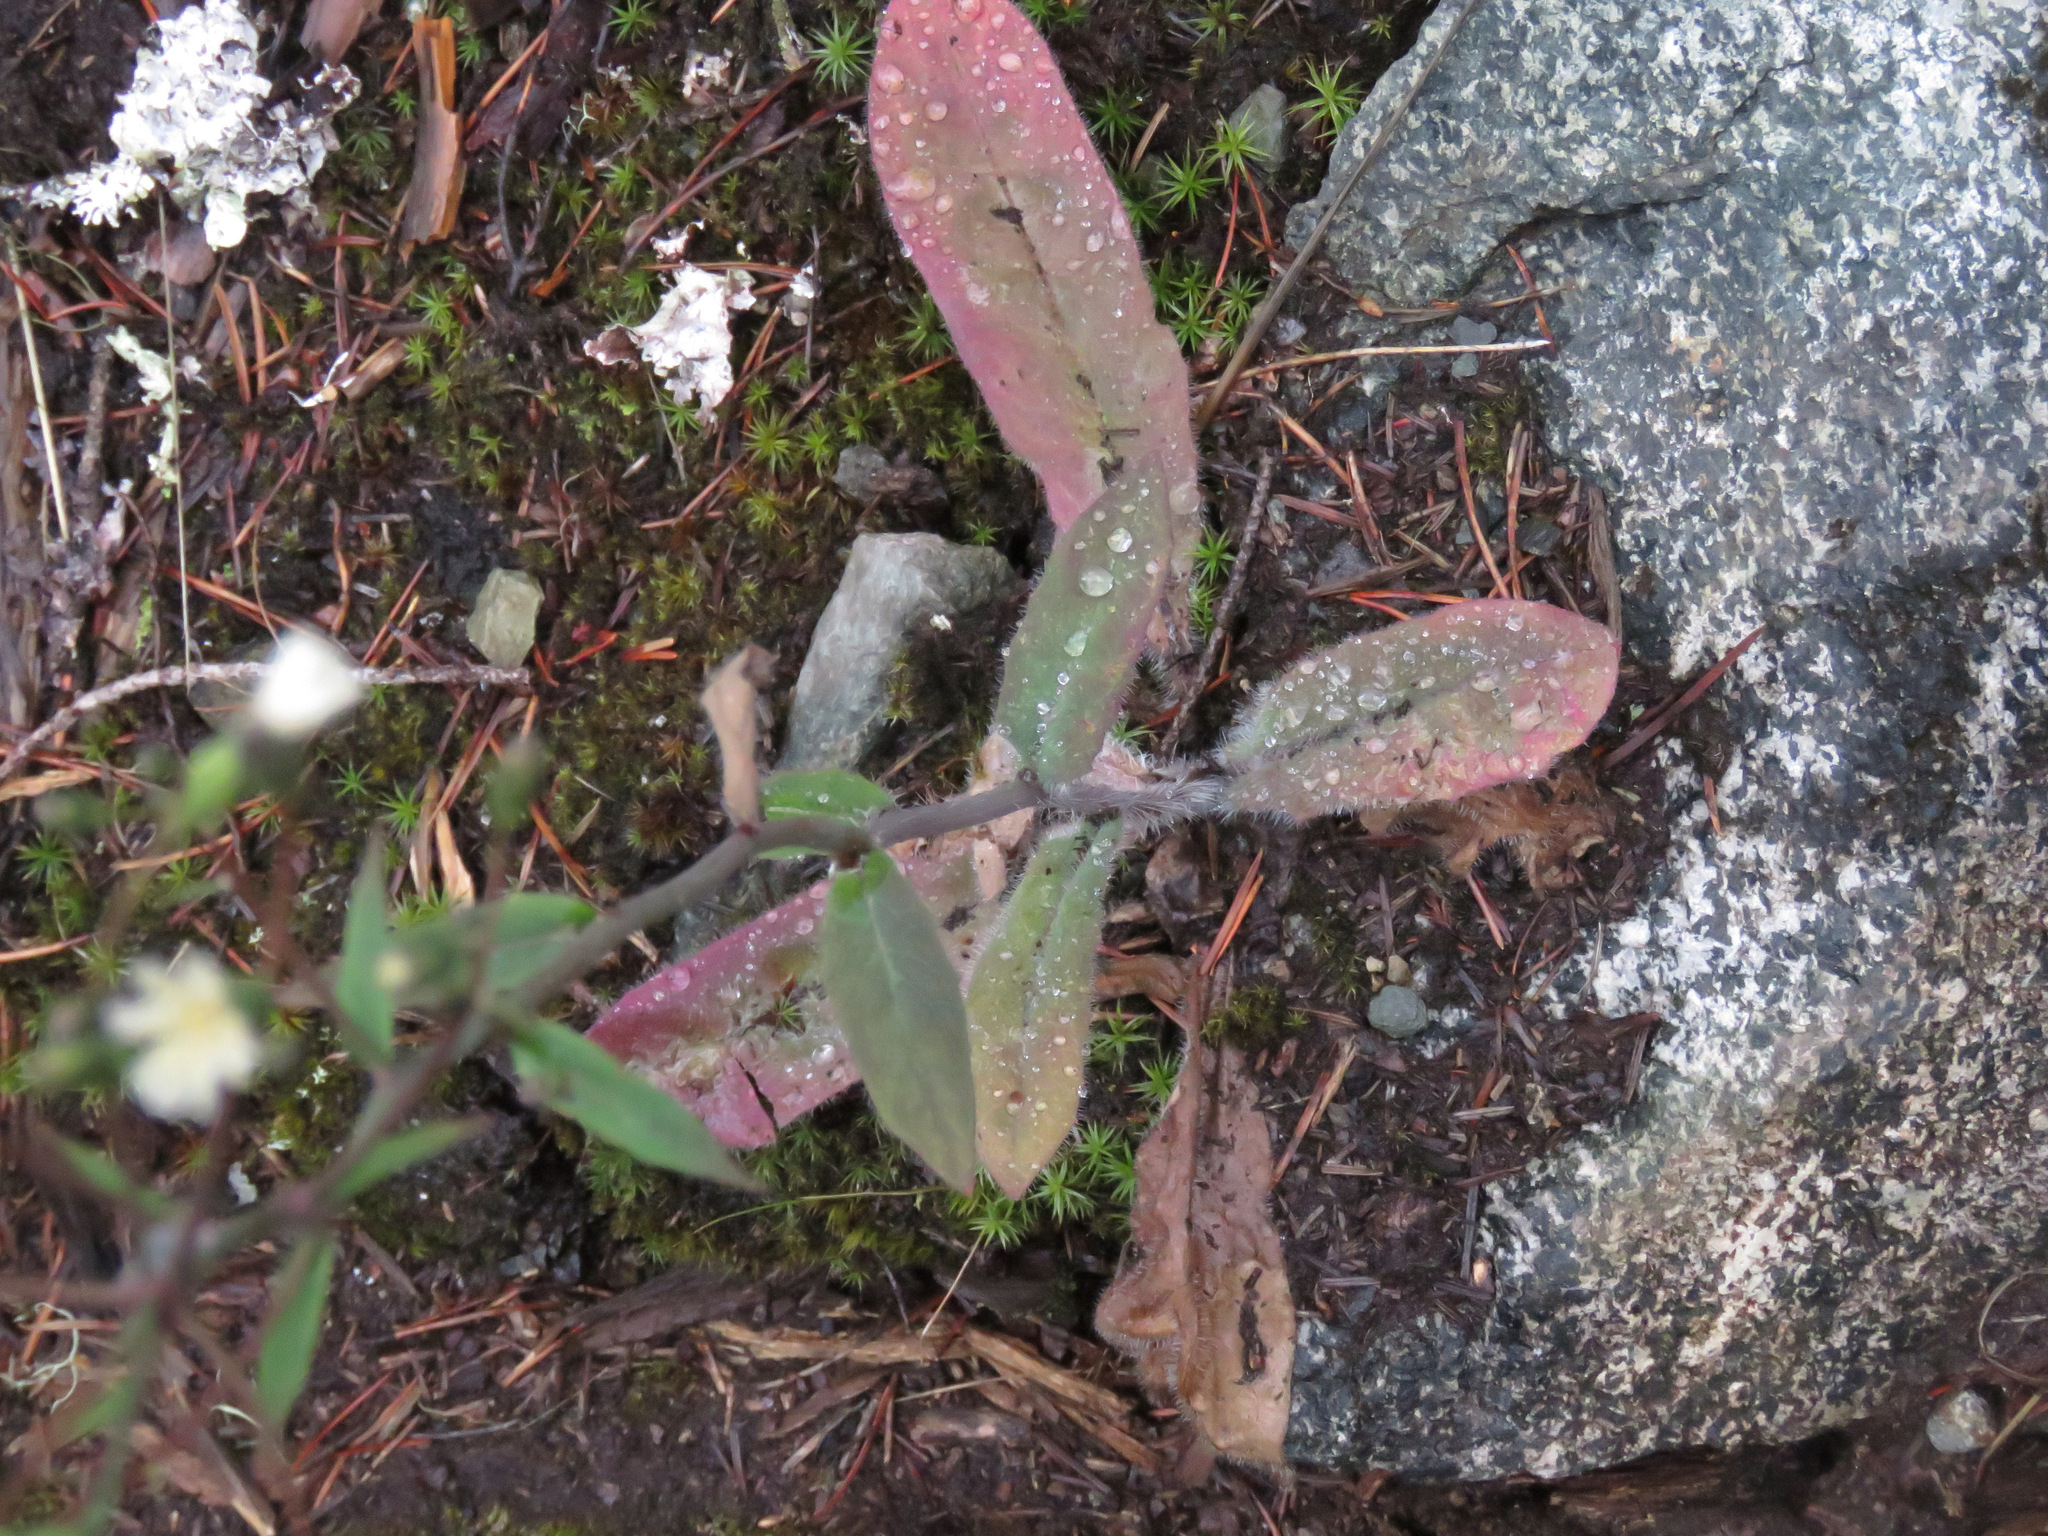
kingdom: Plantae
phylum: Tracheophyta
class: Magnoliopsida
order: Asterales
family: Asteraceae
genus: Hieracium
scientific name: Hieracium albiflorum
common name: White hawkweed
